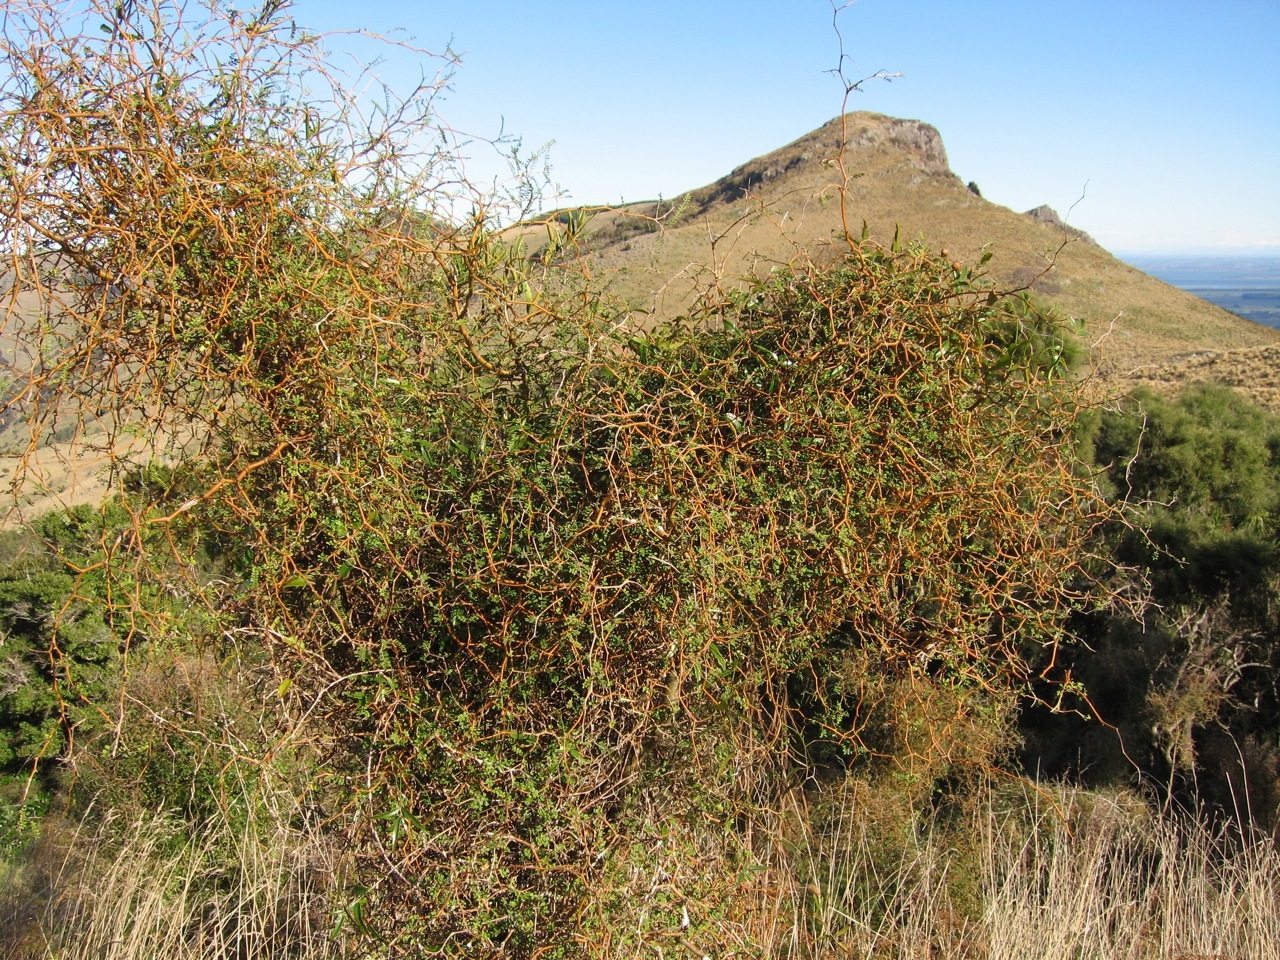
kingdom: Plantae
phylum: Tracheophyta
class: Magnoliopsida
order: Fabales
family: Fabaceae
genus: Sophora
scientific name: Sophora microphylla
